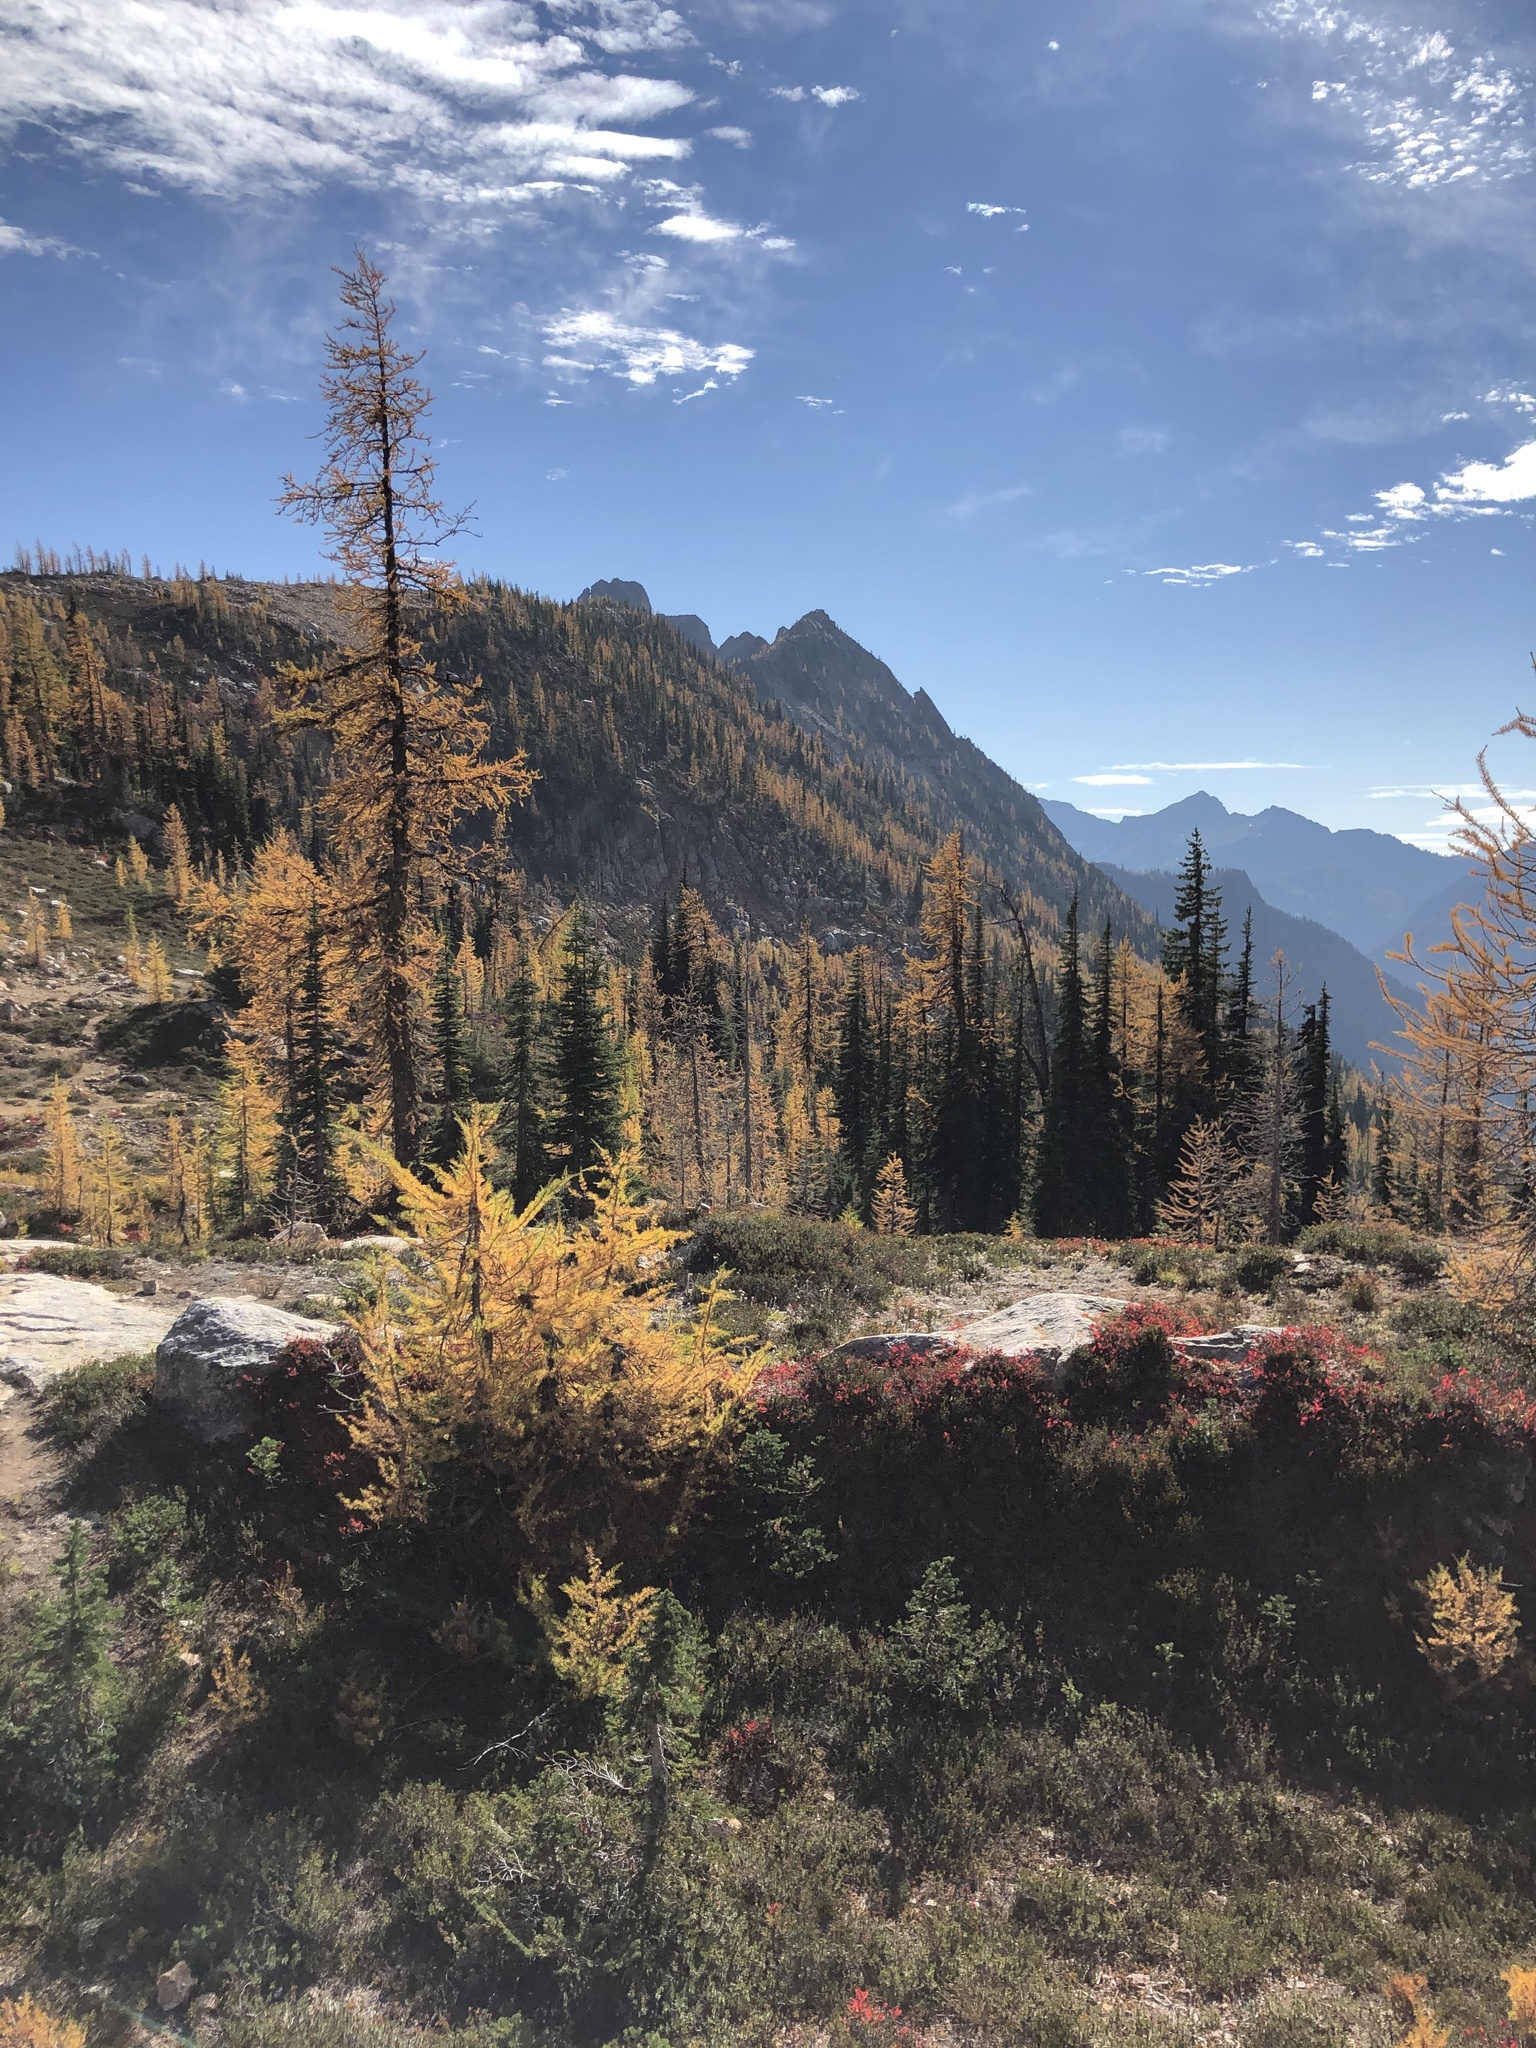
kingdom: Plantae
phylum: Tracheophyta
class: Pinopsida
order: Pinales
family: Pinaceae
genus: Larix
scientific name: Larix lyallii
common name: Alpine larch
